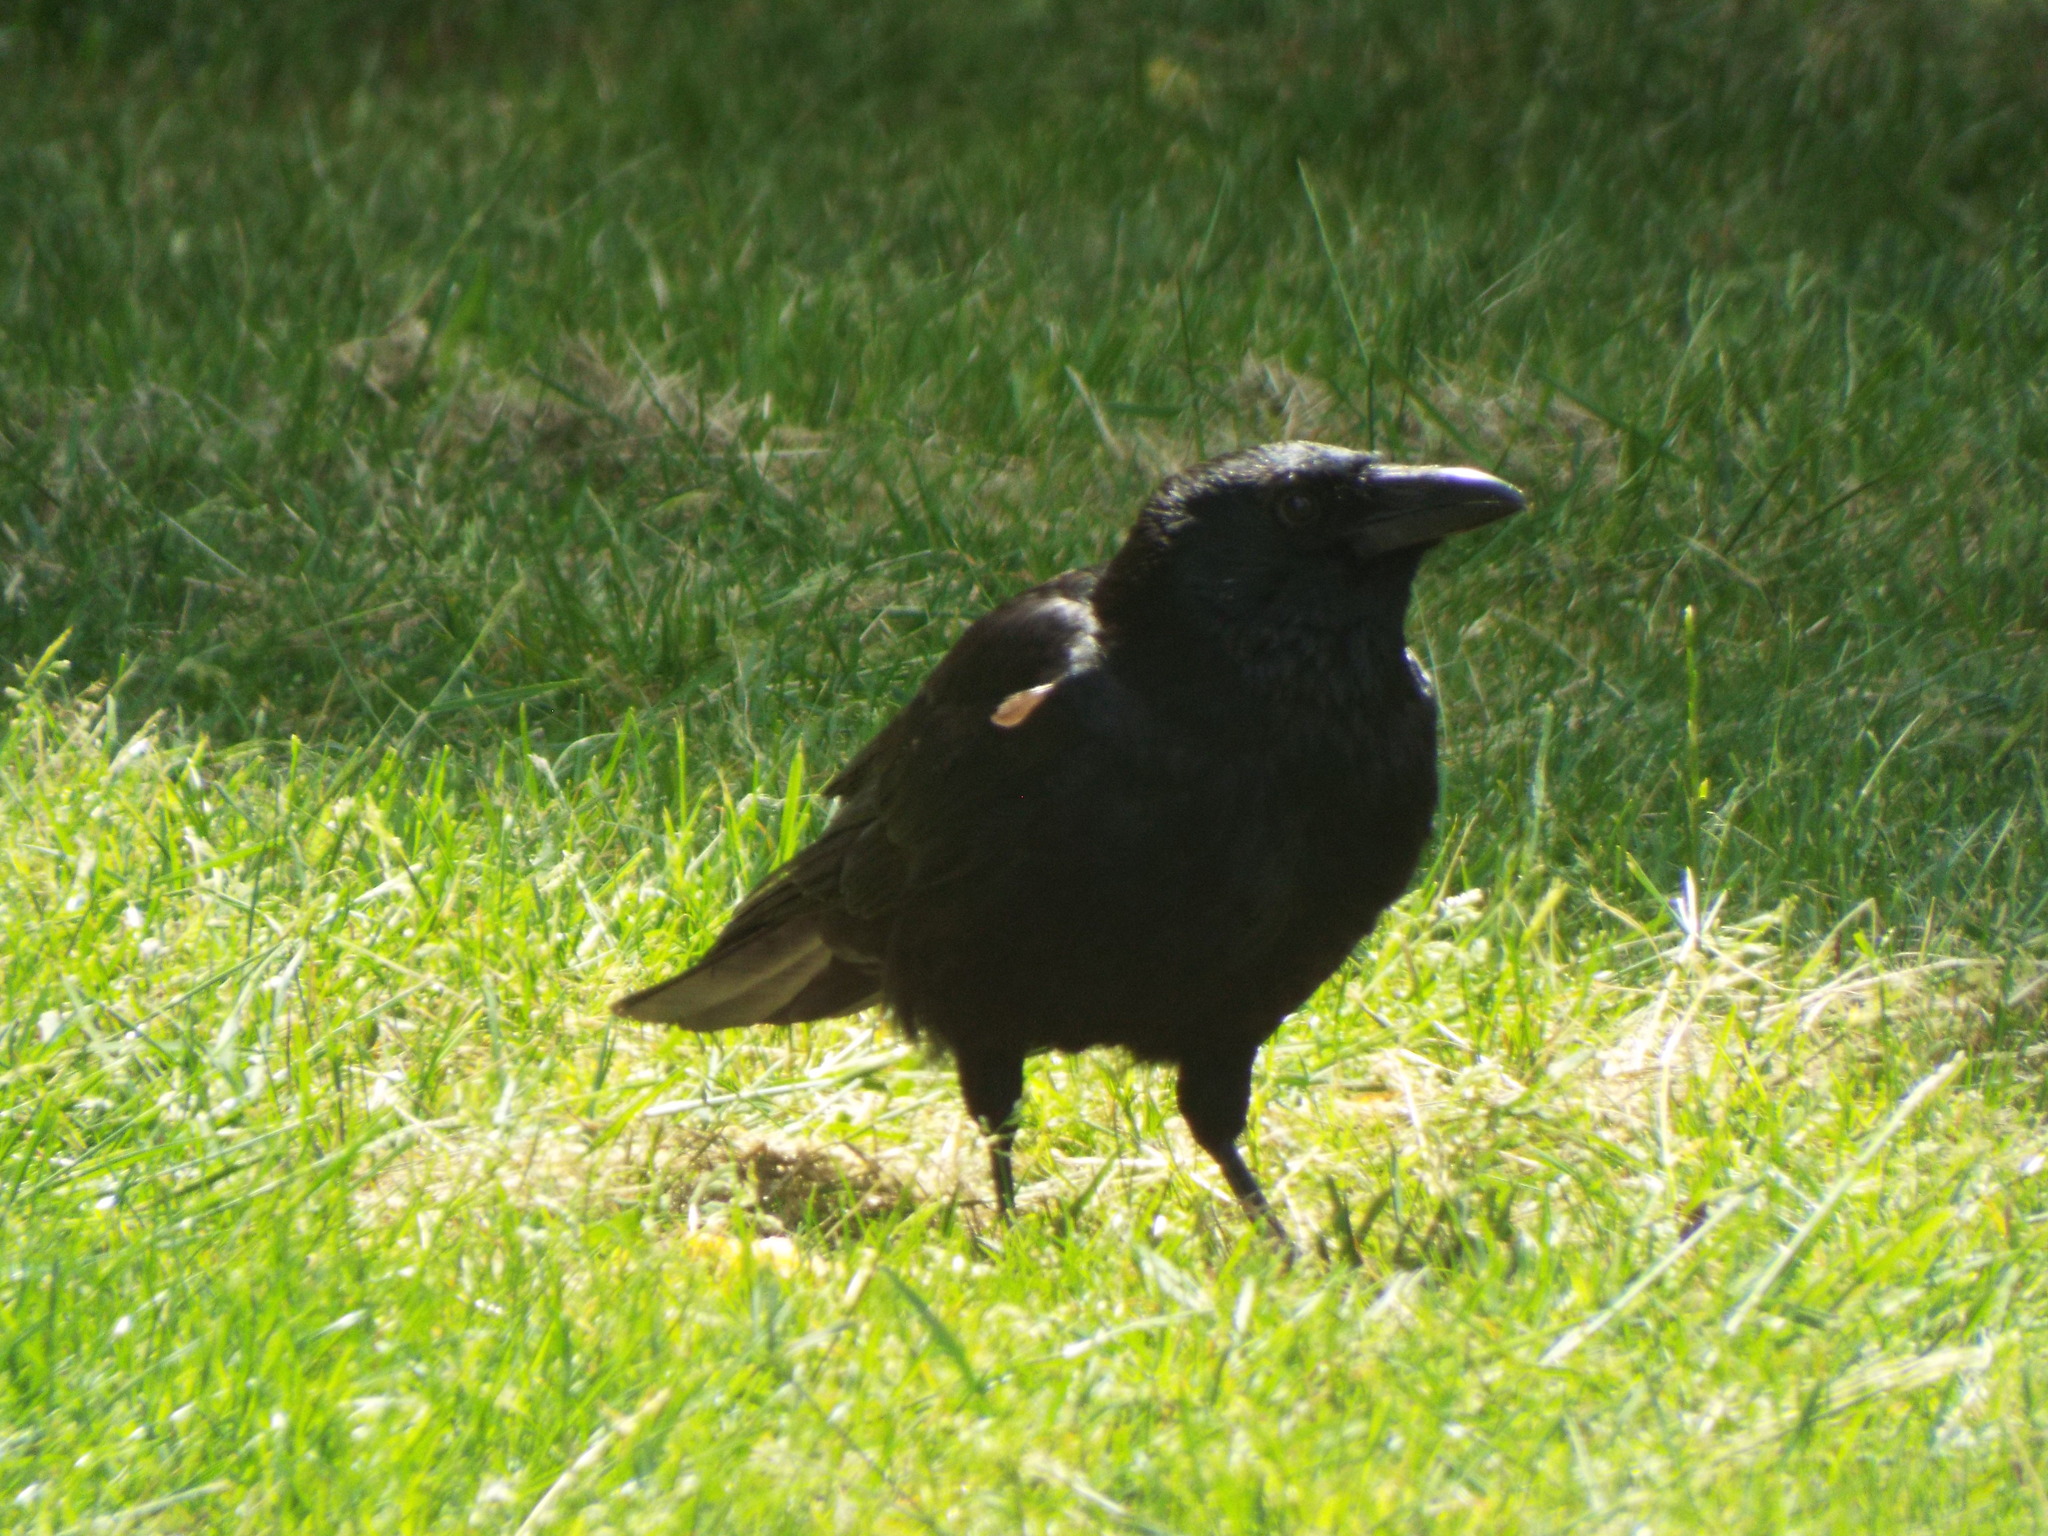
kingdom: Animalia
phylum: Chordata
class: Aves
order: Passeriformes
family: Corvidae
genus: Corvus
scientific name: Corvus corone
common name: Carrion crow
